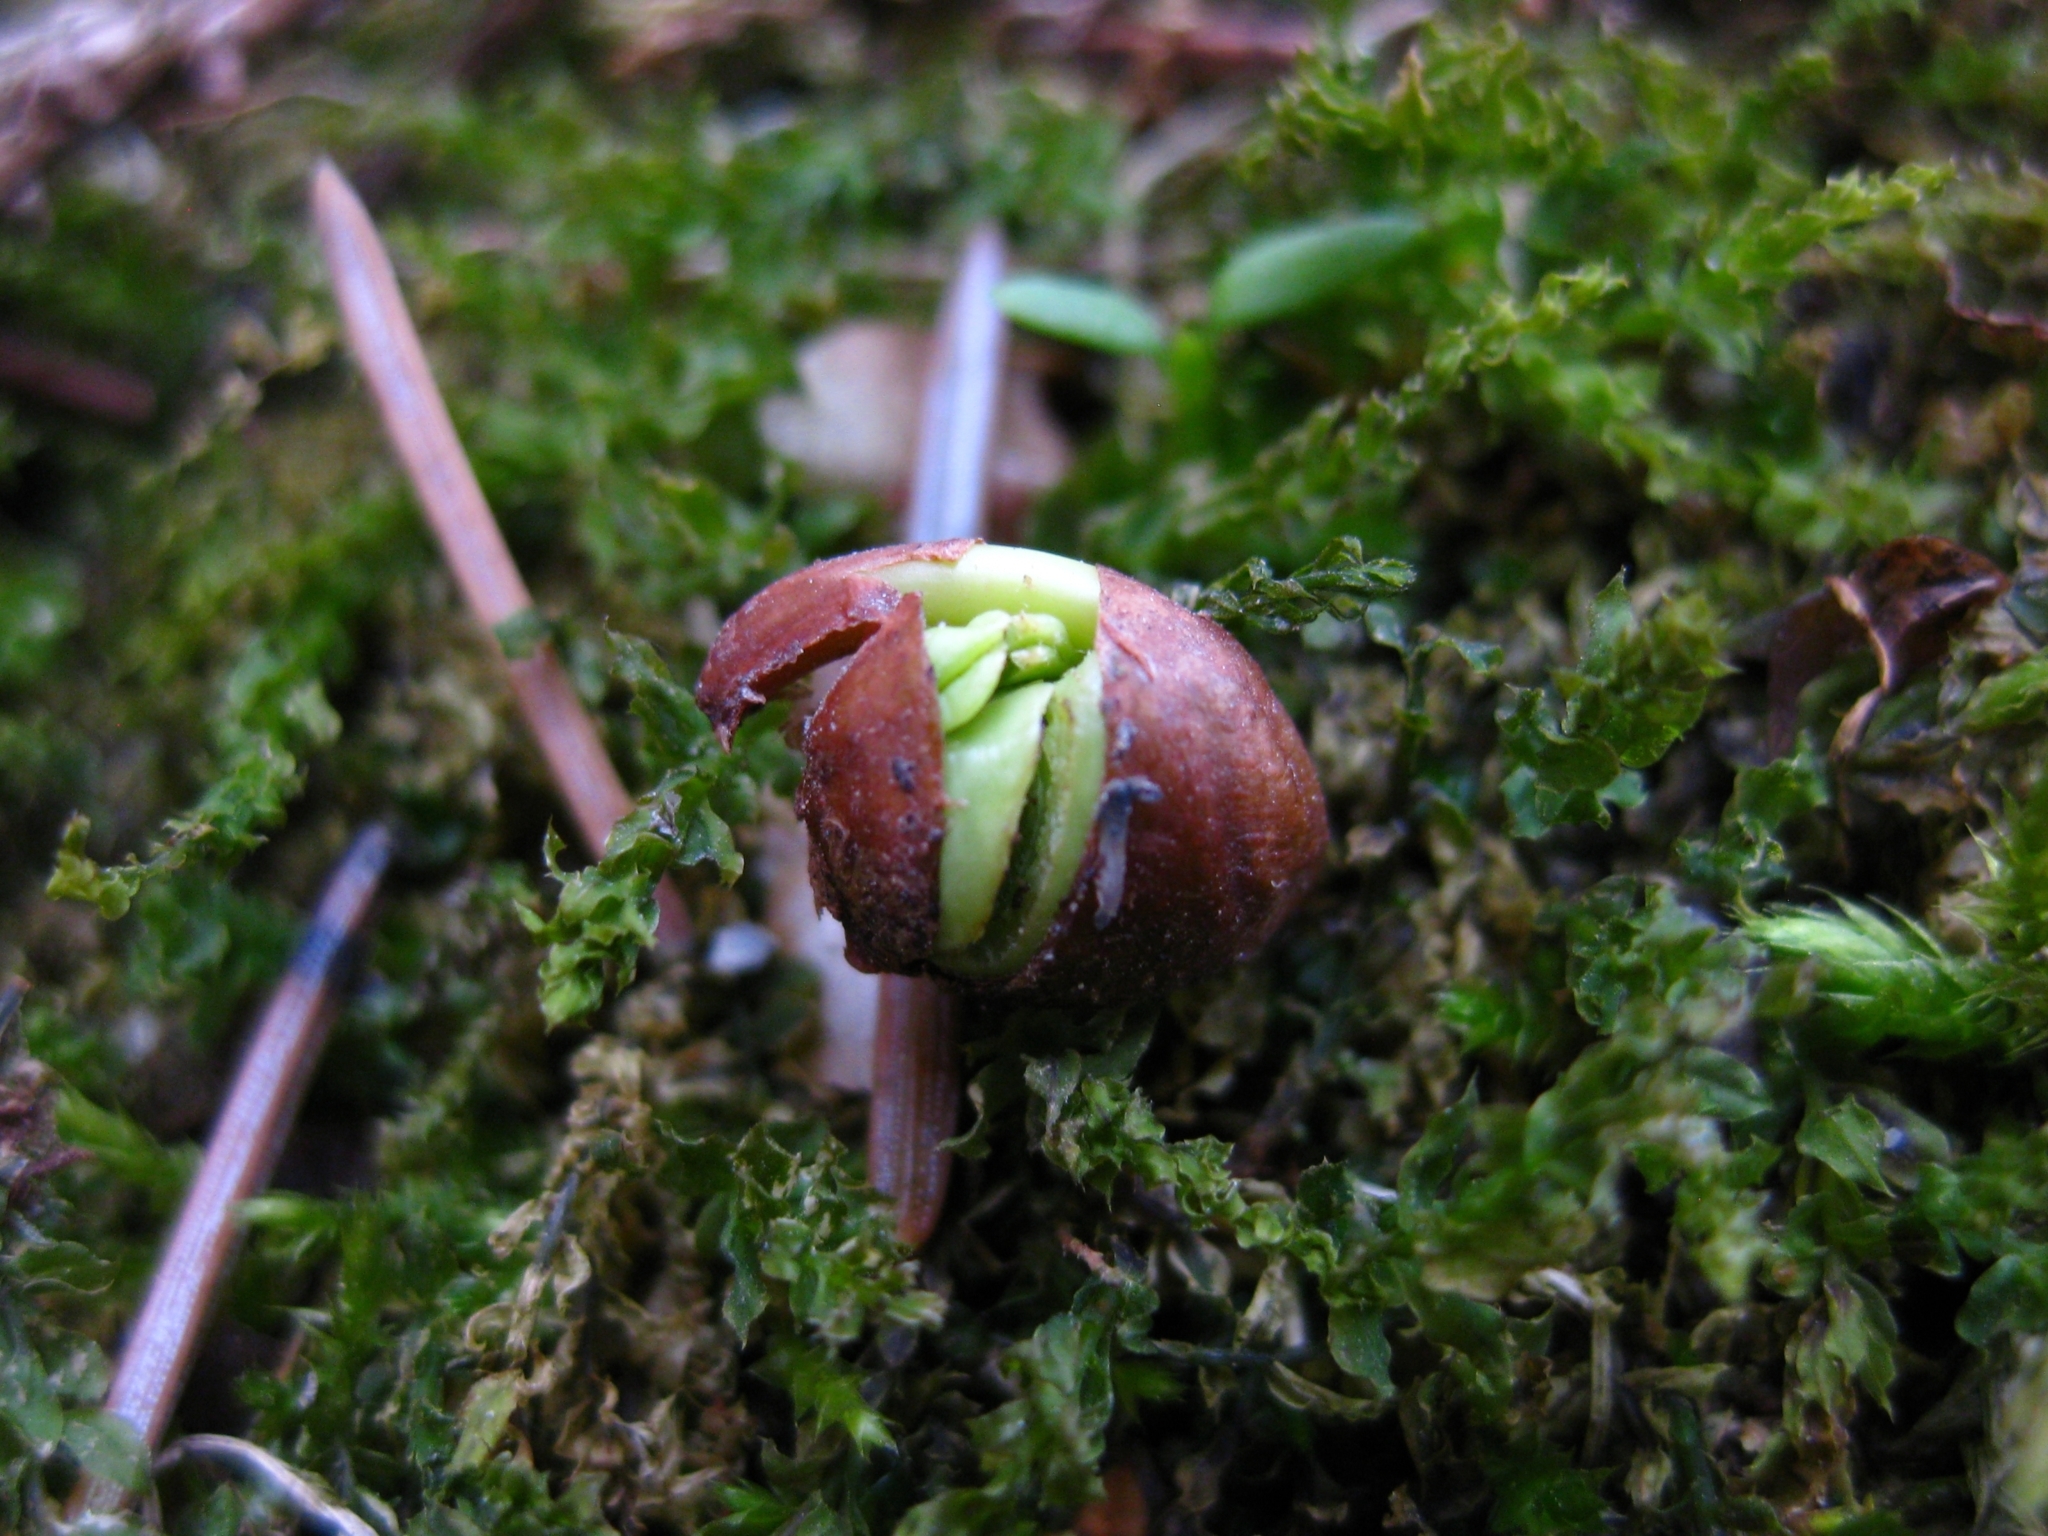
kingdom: Plantae
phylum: Tracheophyta
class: Magnoliopsida
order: Sapindales
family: Sapindaceae
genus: Acer
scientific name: Acer pseudoplatanus
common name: Sycamore
